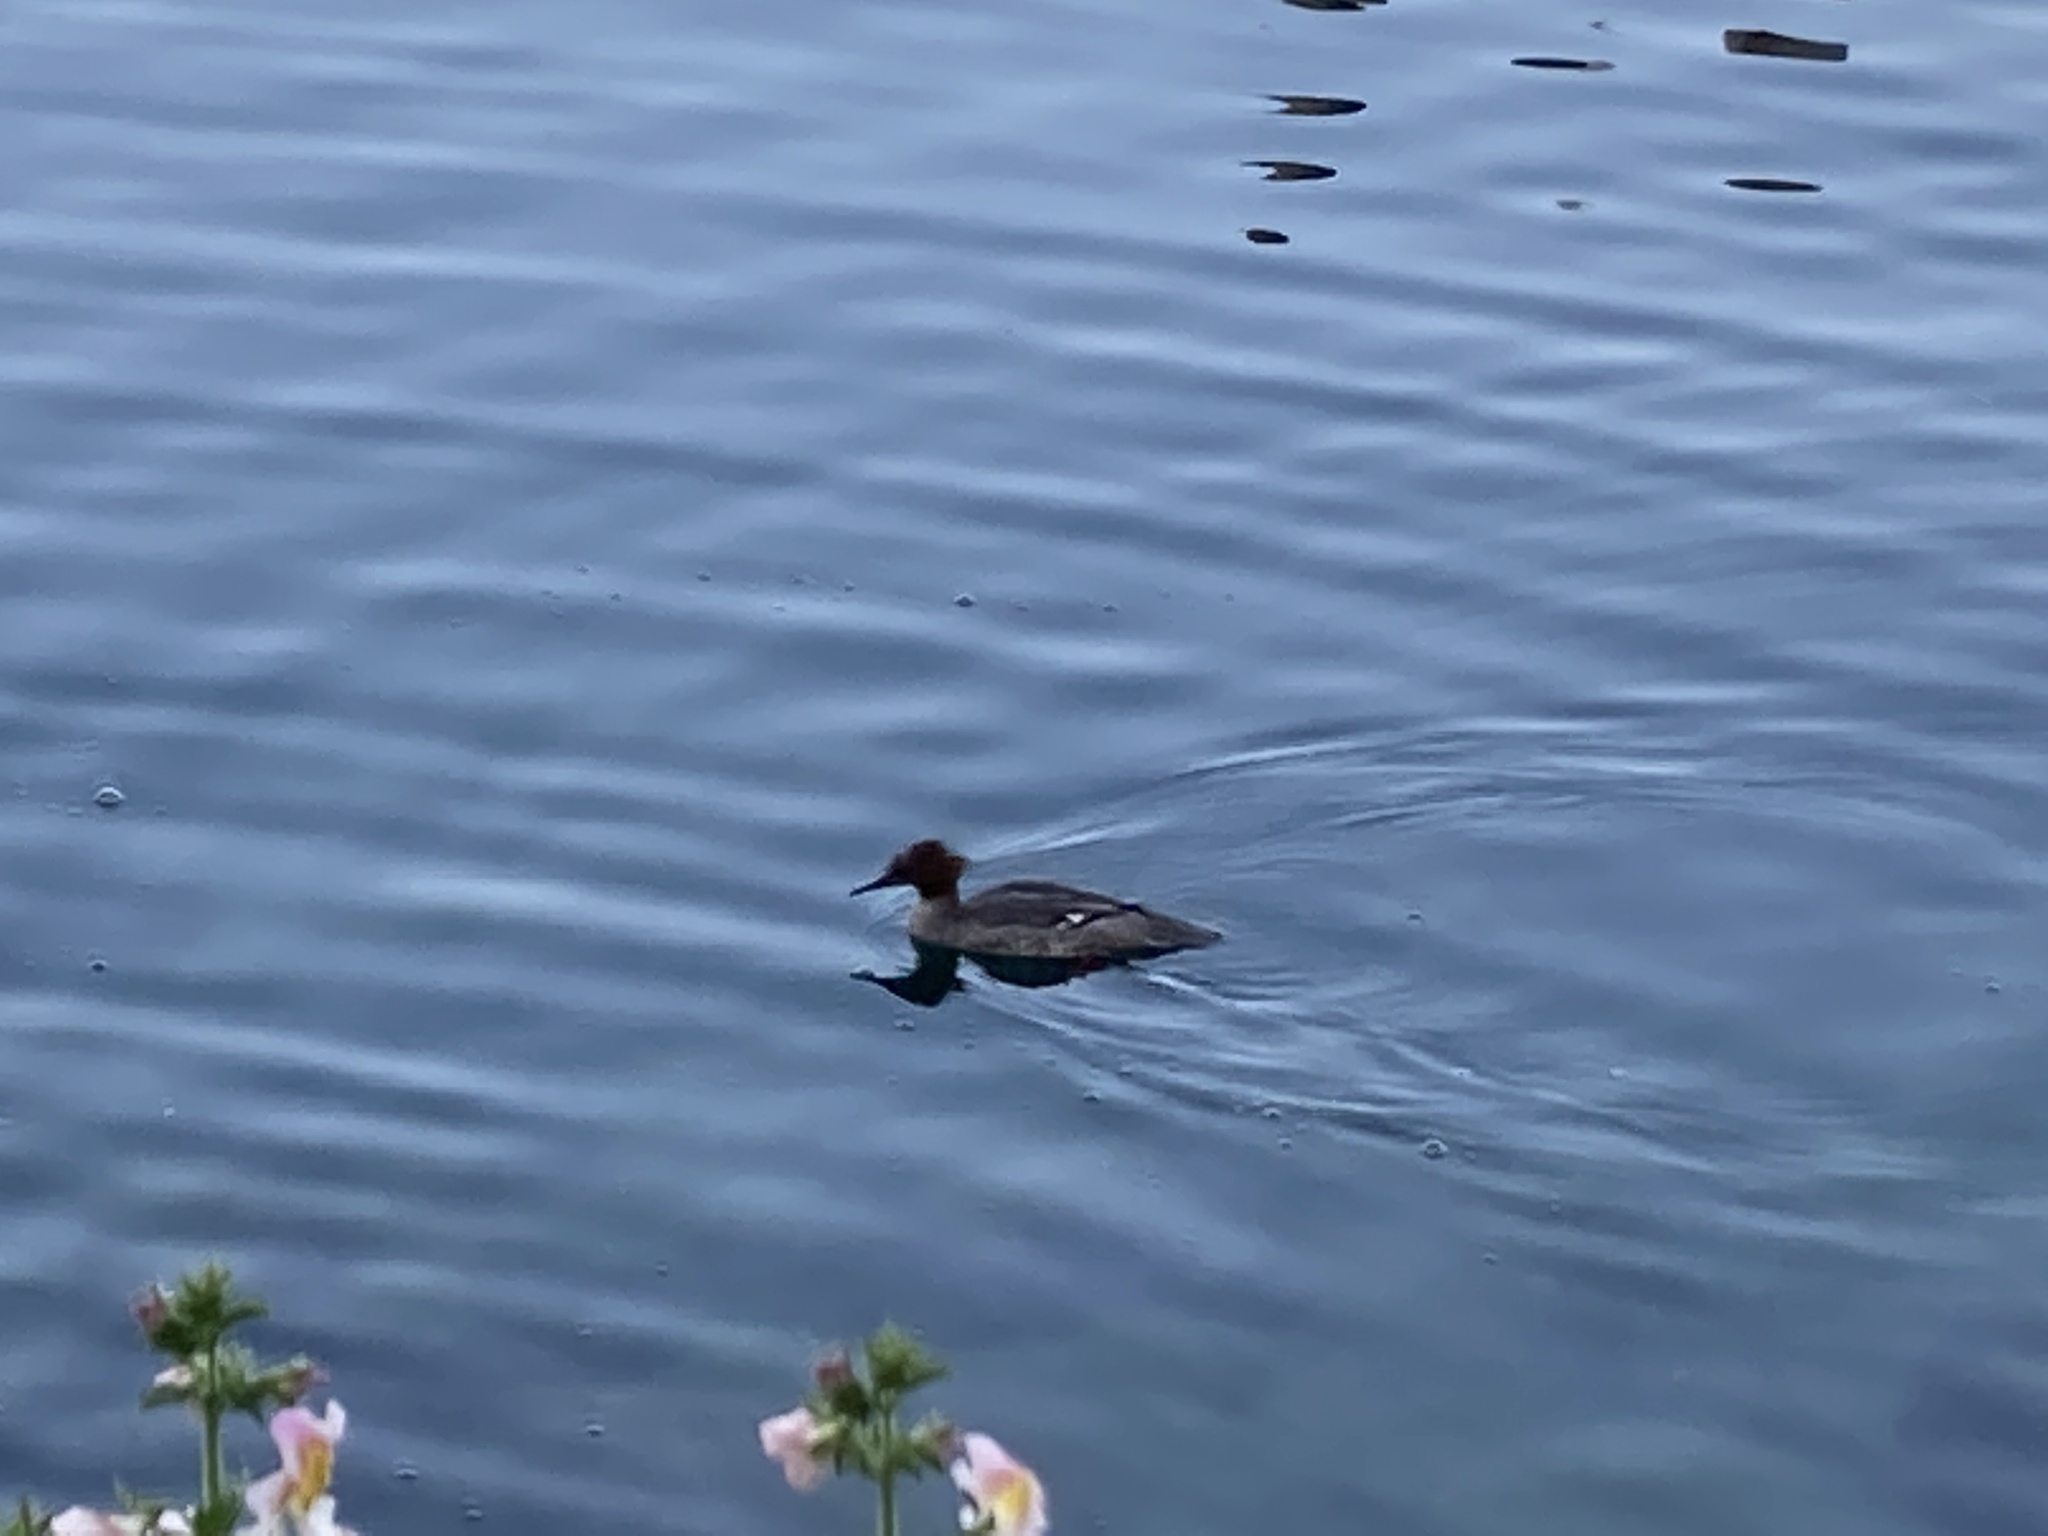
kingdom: Animalia
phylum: Chordata
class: Aves
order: Anseriformes
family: Anatidae
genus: Mergus
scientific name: Mergus serrator
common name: Red-breasted merganser
